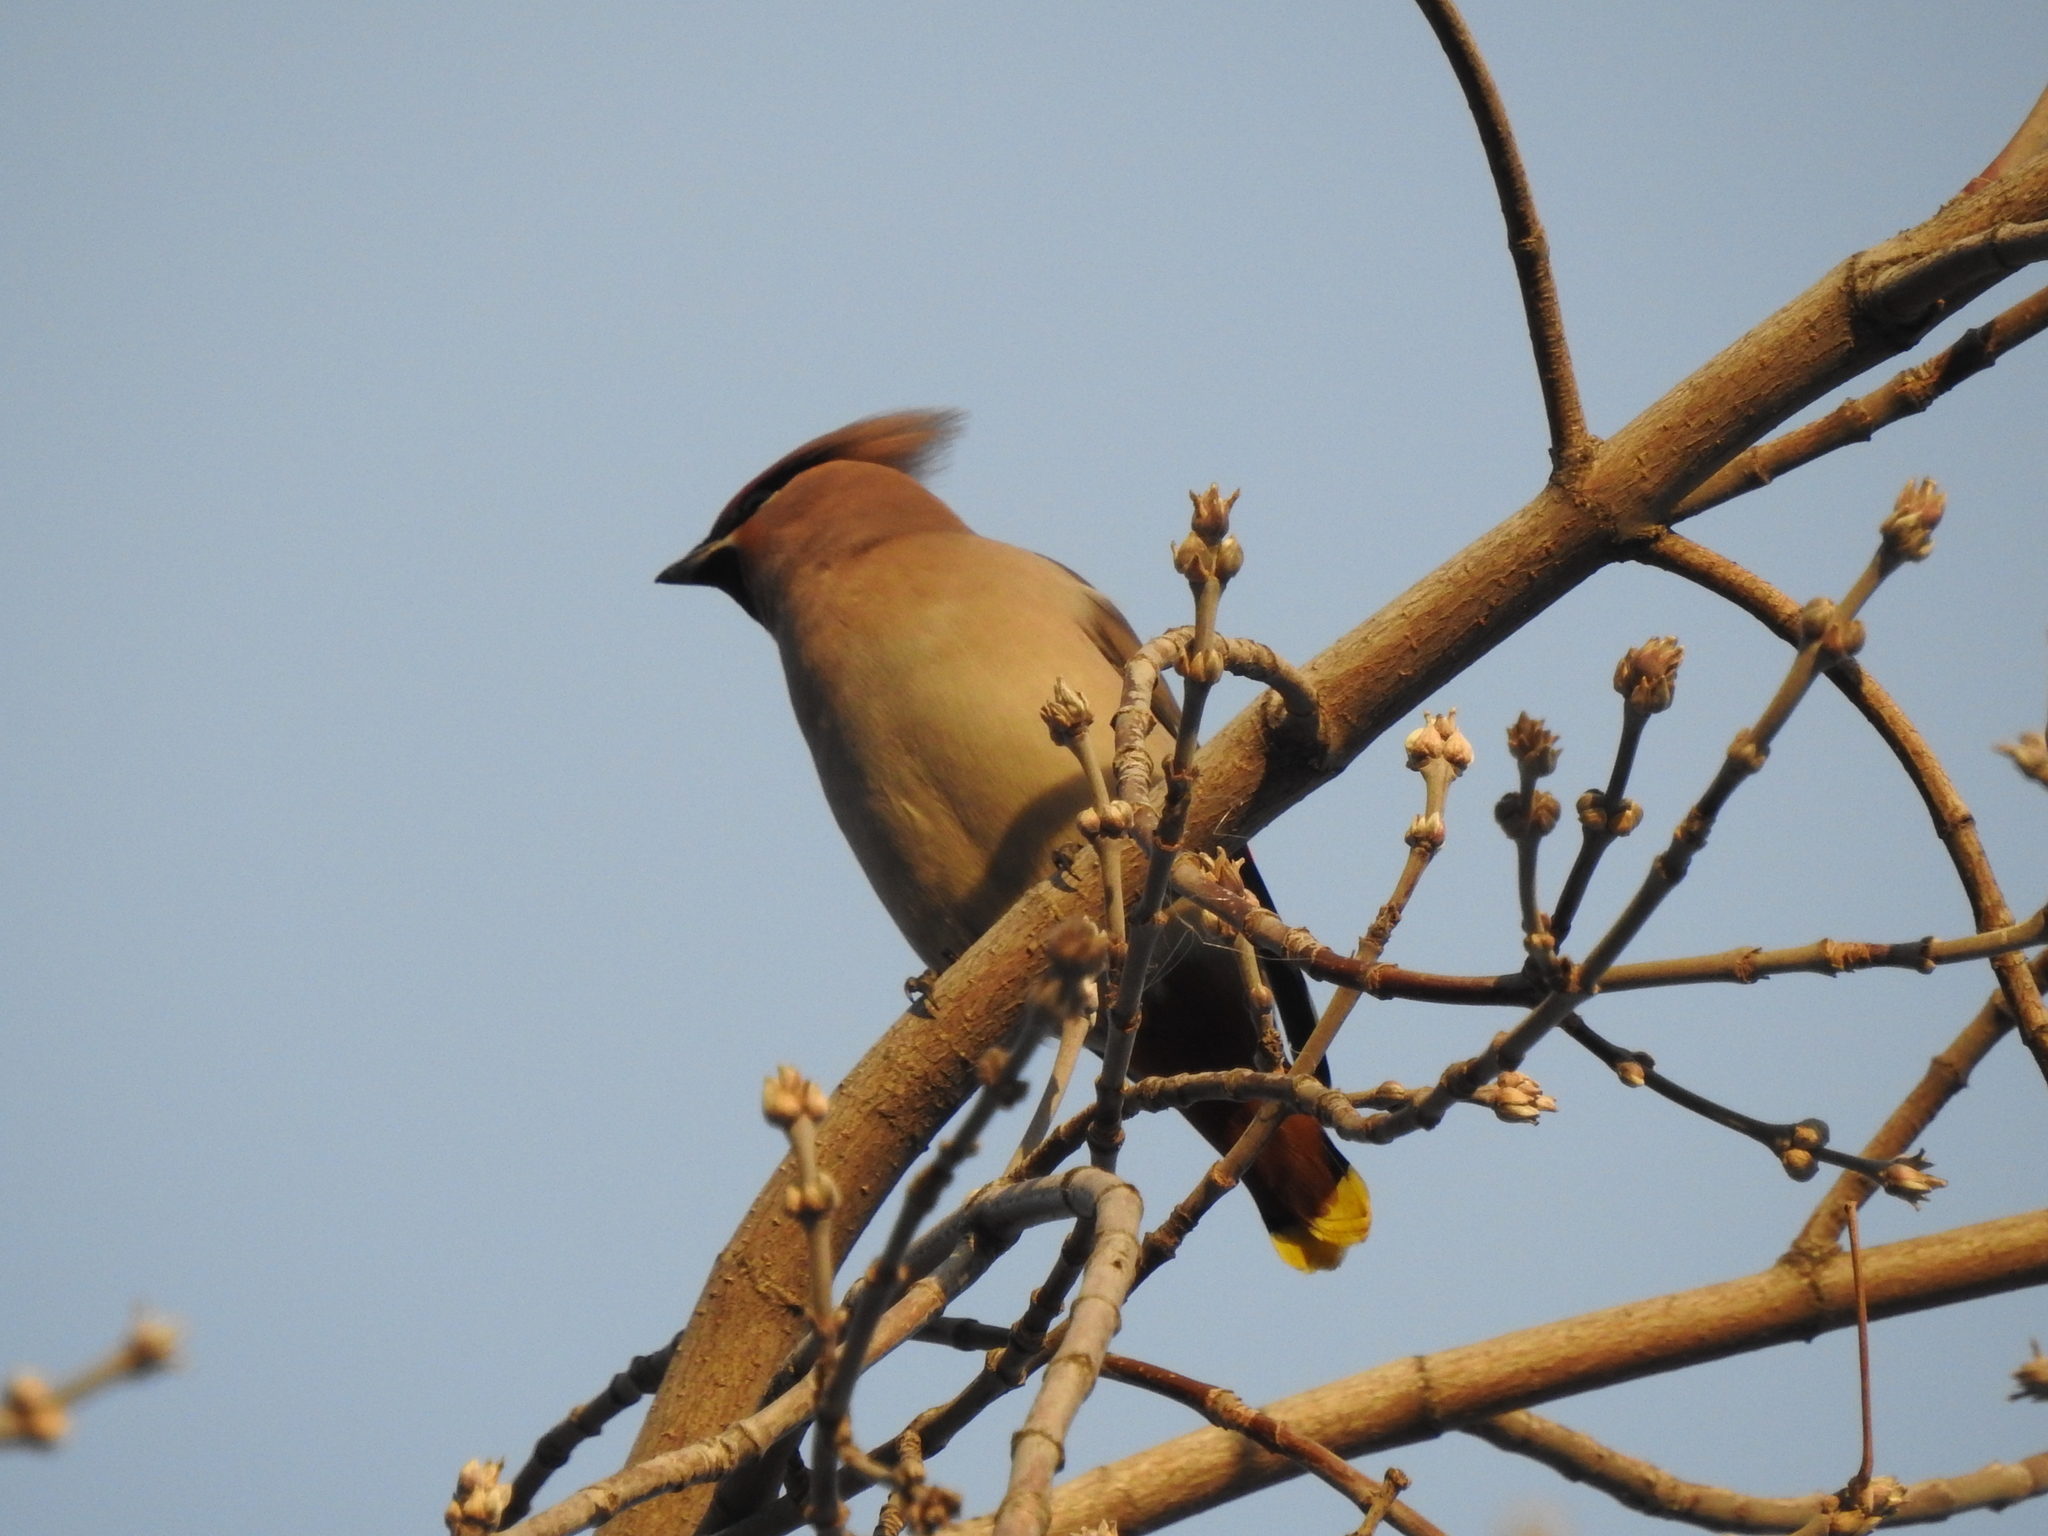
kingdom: Animalia
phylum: Chordata
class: Aves
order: Passeriformes
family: Bombycillidae
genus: Bombycilla
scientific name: Bombycilla garrulus
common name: Bohemian waxwing
